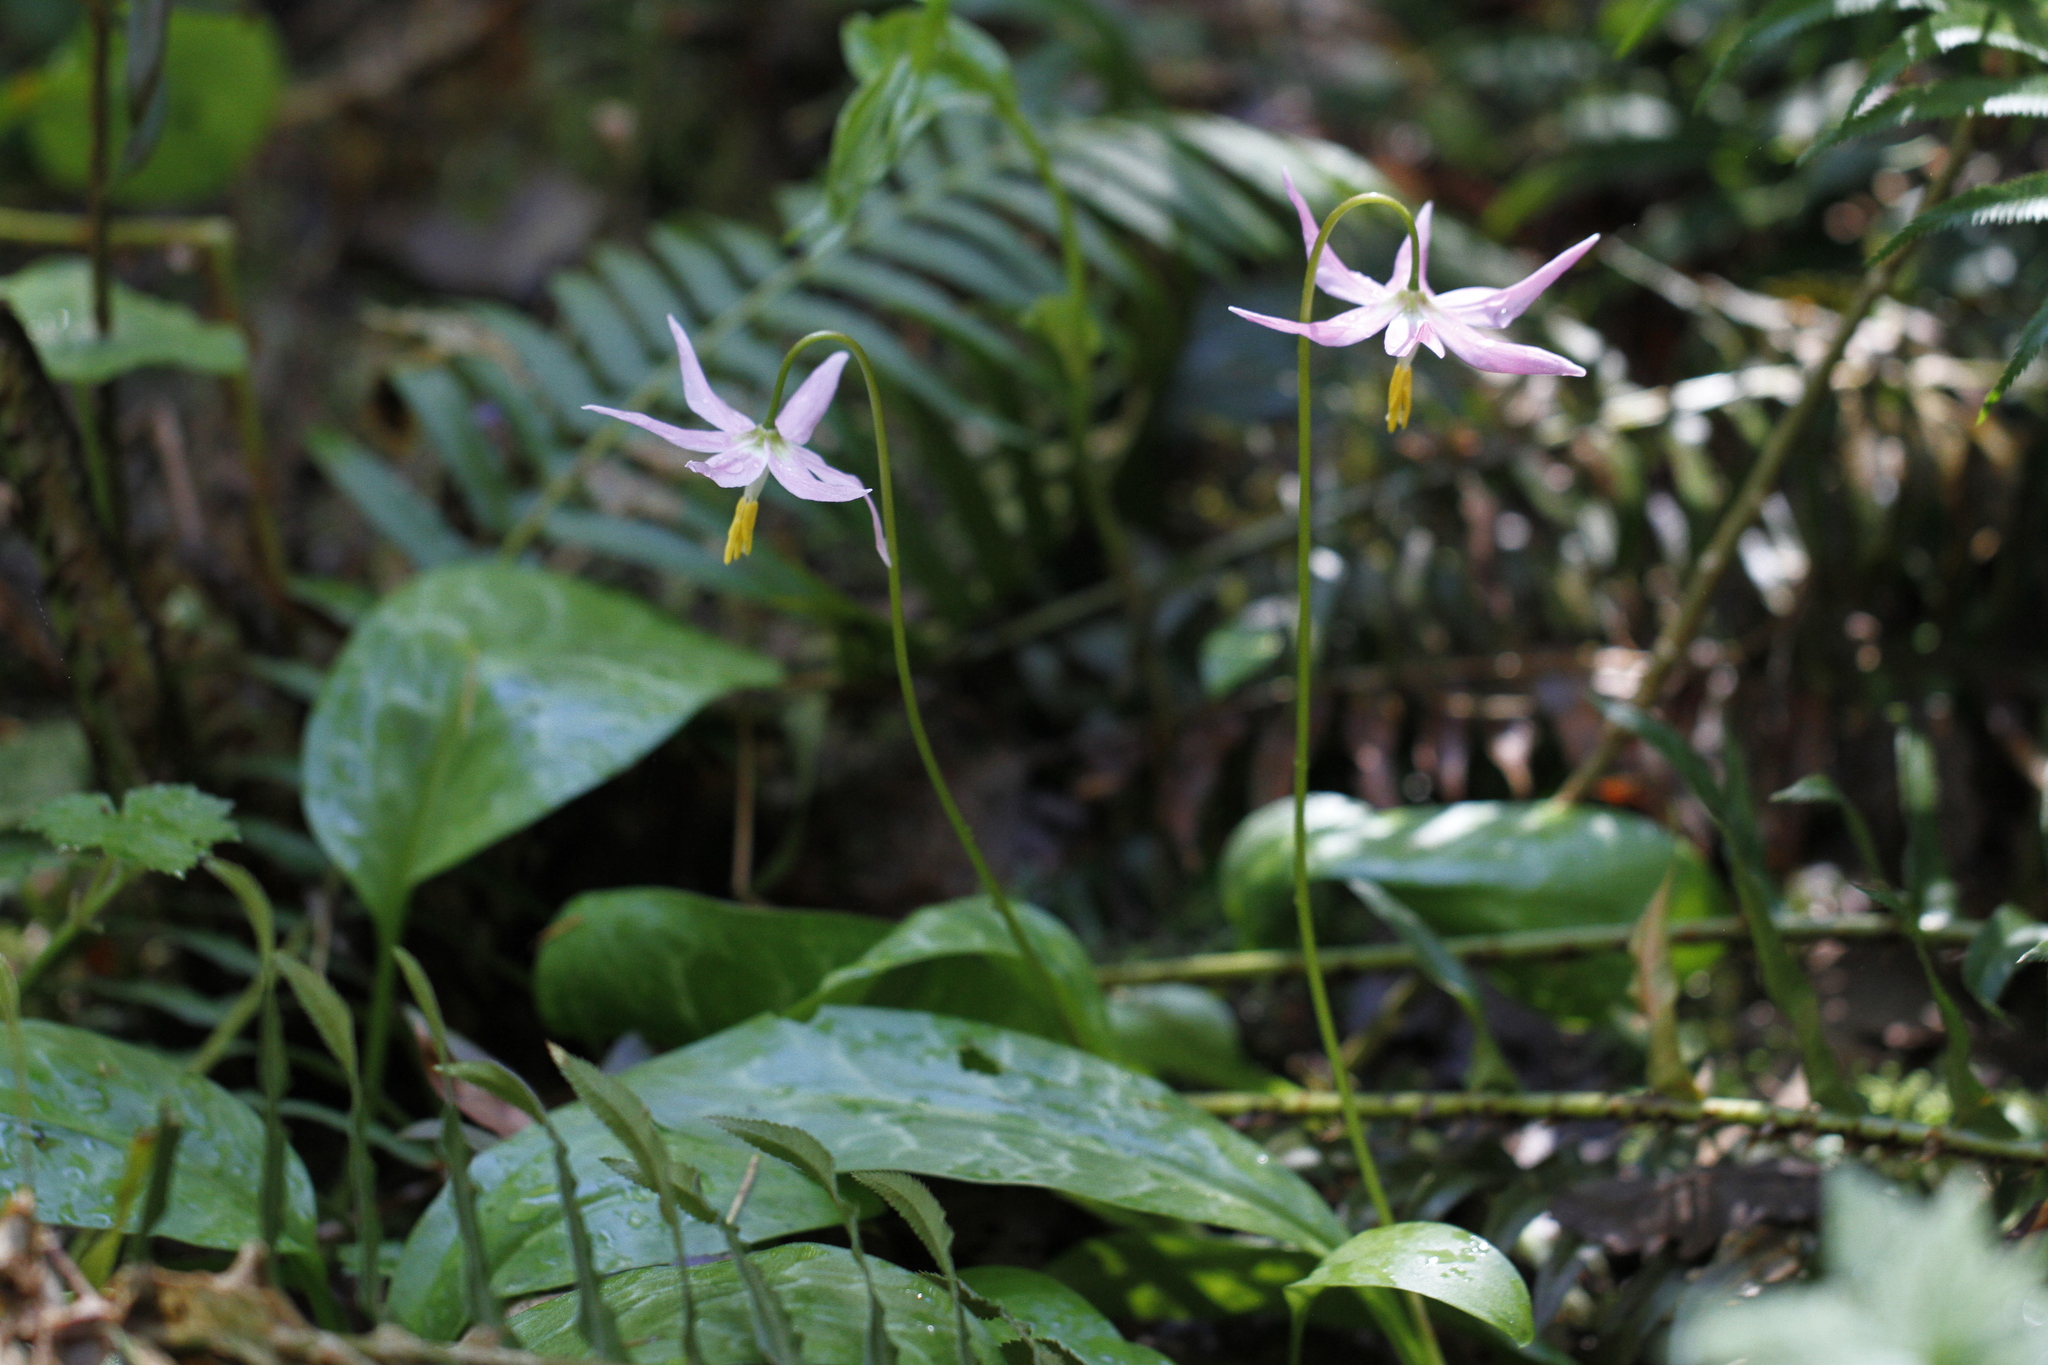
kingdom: Plantae
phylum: Tracheophyta
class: Liliopsida
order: Liliales
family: Liliaceae
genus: Erythronium
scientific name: Erythronium revolutum
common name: Pink fawn-lily
